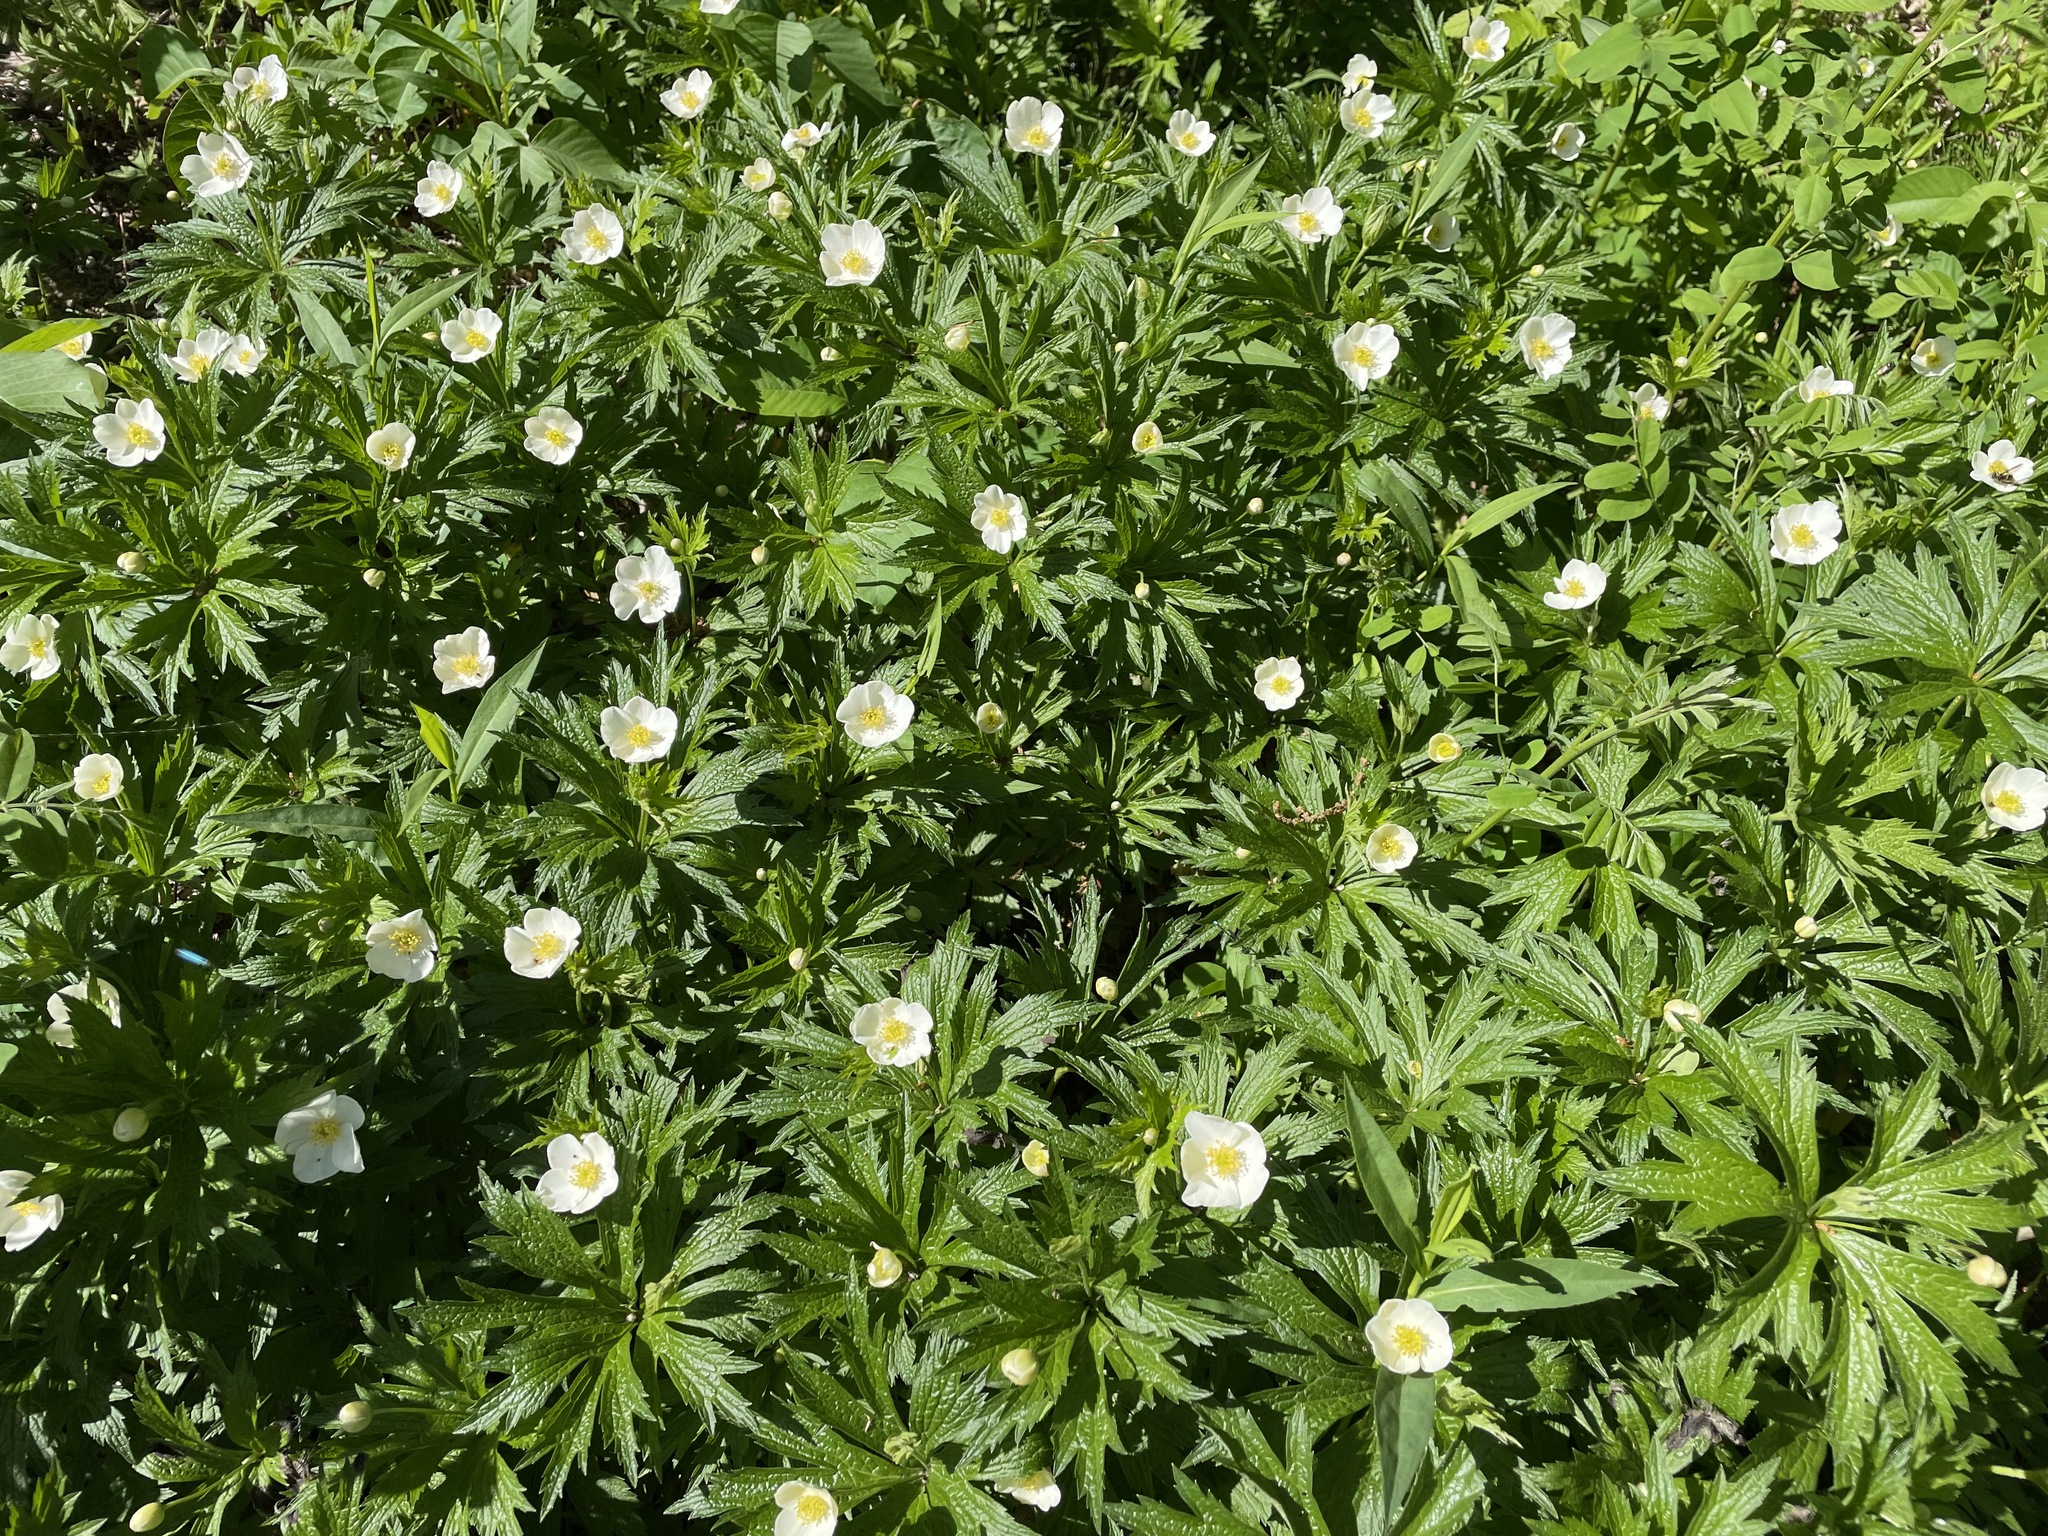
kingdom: Plantae
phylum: Tracheophyta
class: Magnoliopsida
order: Ranunculales
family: Ranunculaceae
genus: Anemonastrum
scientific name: Anemonastrum canadense
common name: Canada anemone
